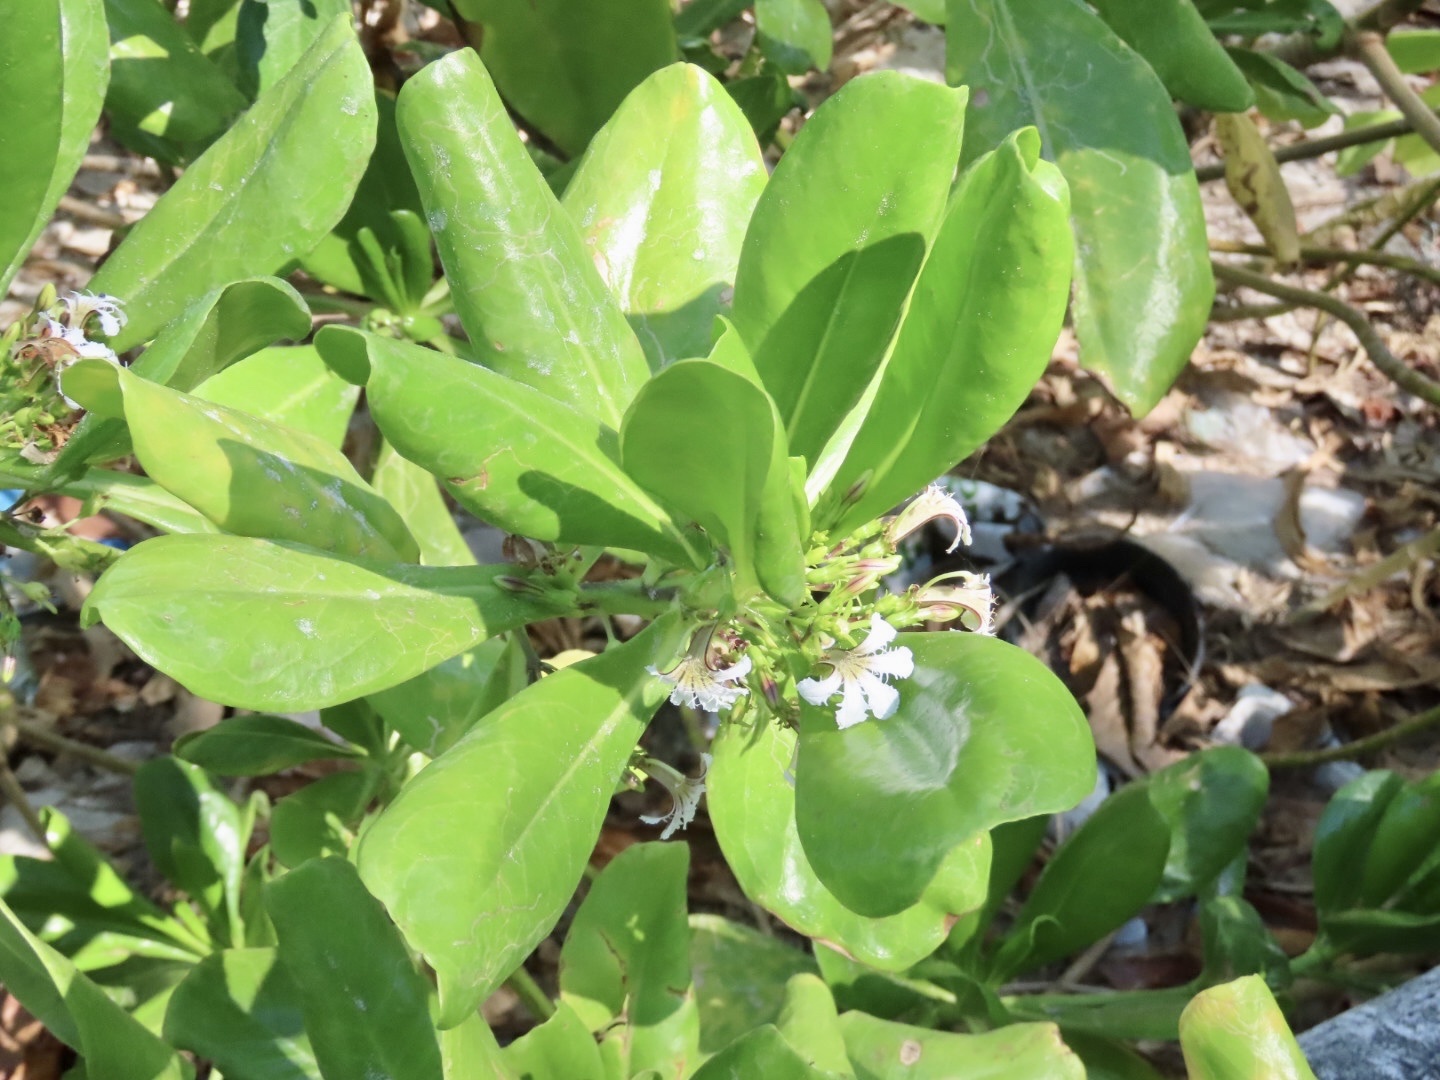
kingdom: Plantae
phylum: Tracheophyta
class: Magnoliopsida
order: Asterales
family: Goodeniaceae
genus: Scaevola
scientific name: Scaevola taccada
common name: Sea lettucetree
